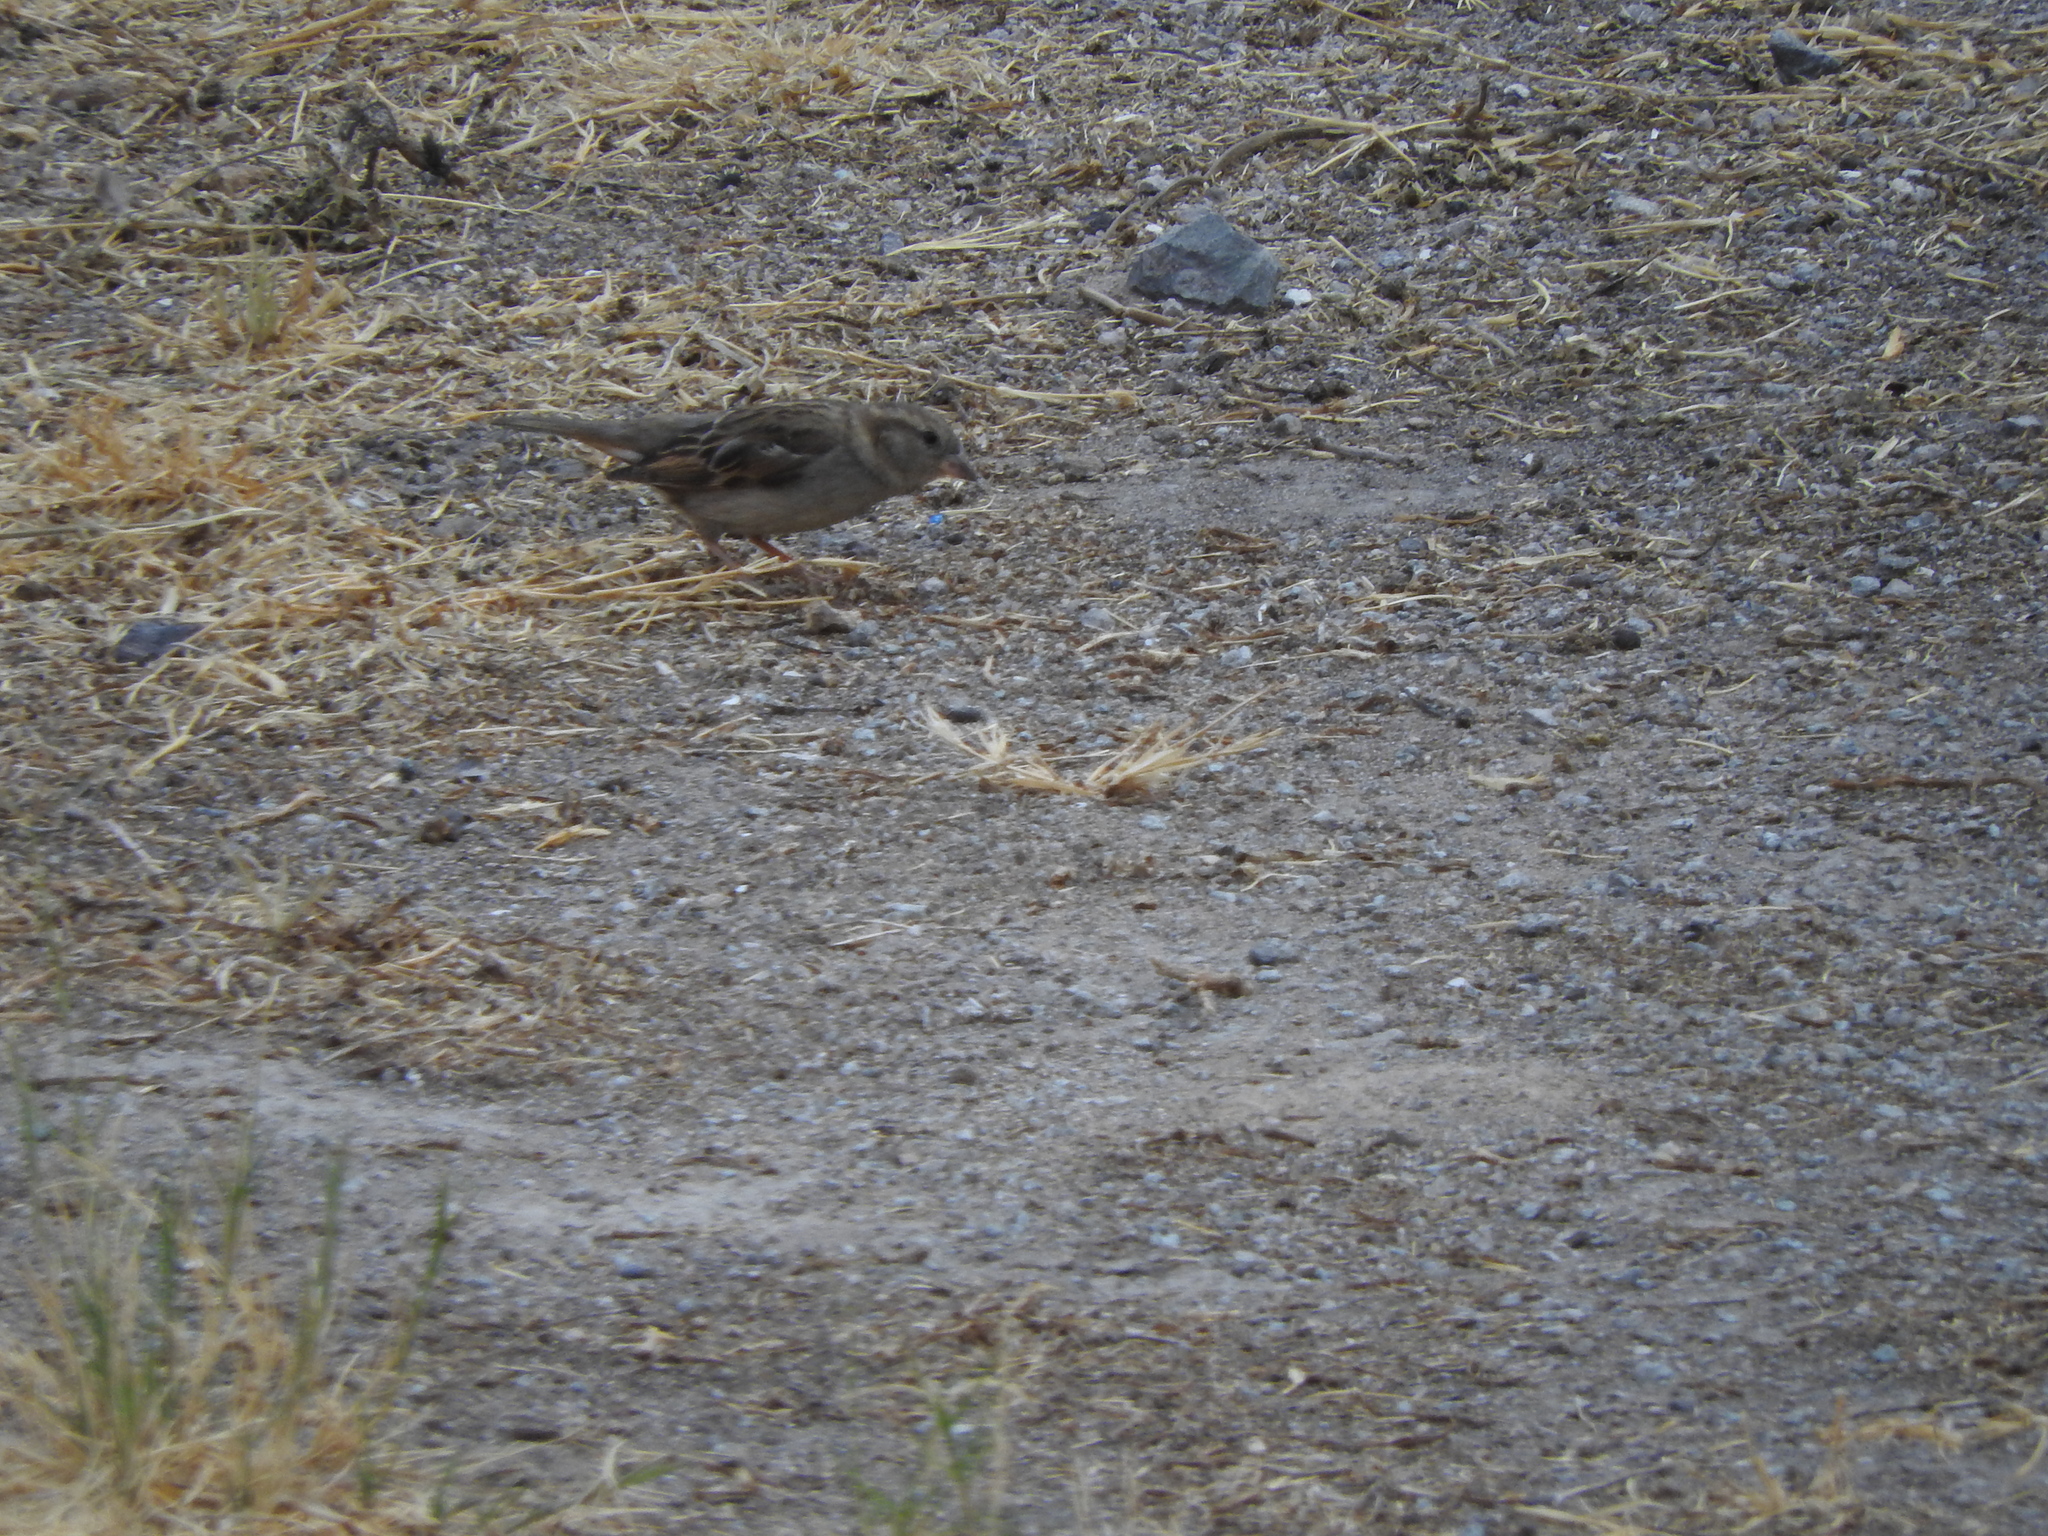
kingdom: Animalia
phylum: Chordata
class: Aves
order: Passeriformes
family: Passeridae
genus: Passer
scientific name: Passer domesticus
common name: House sparrow
